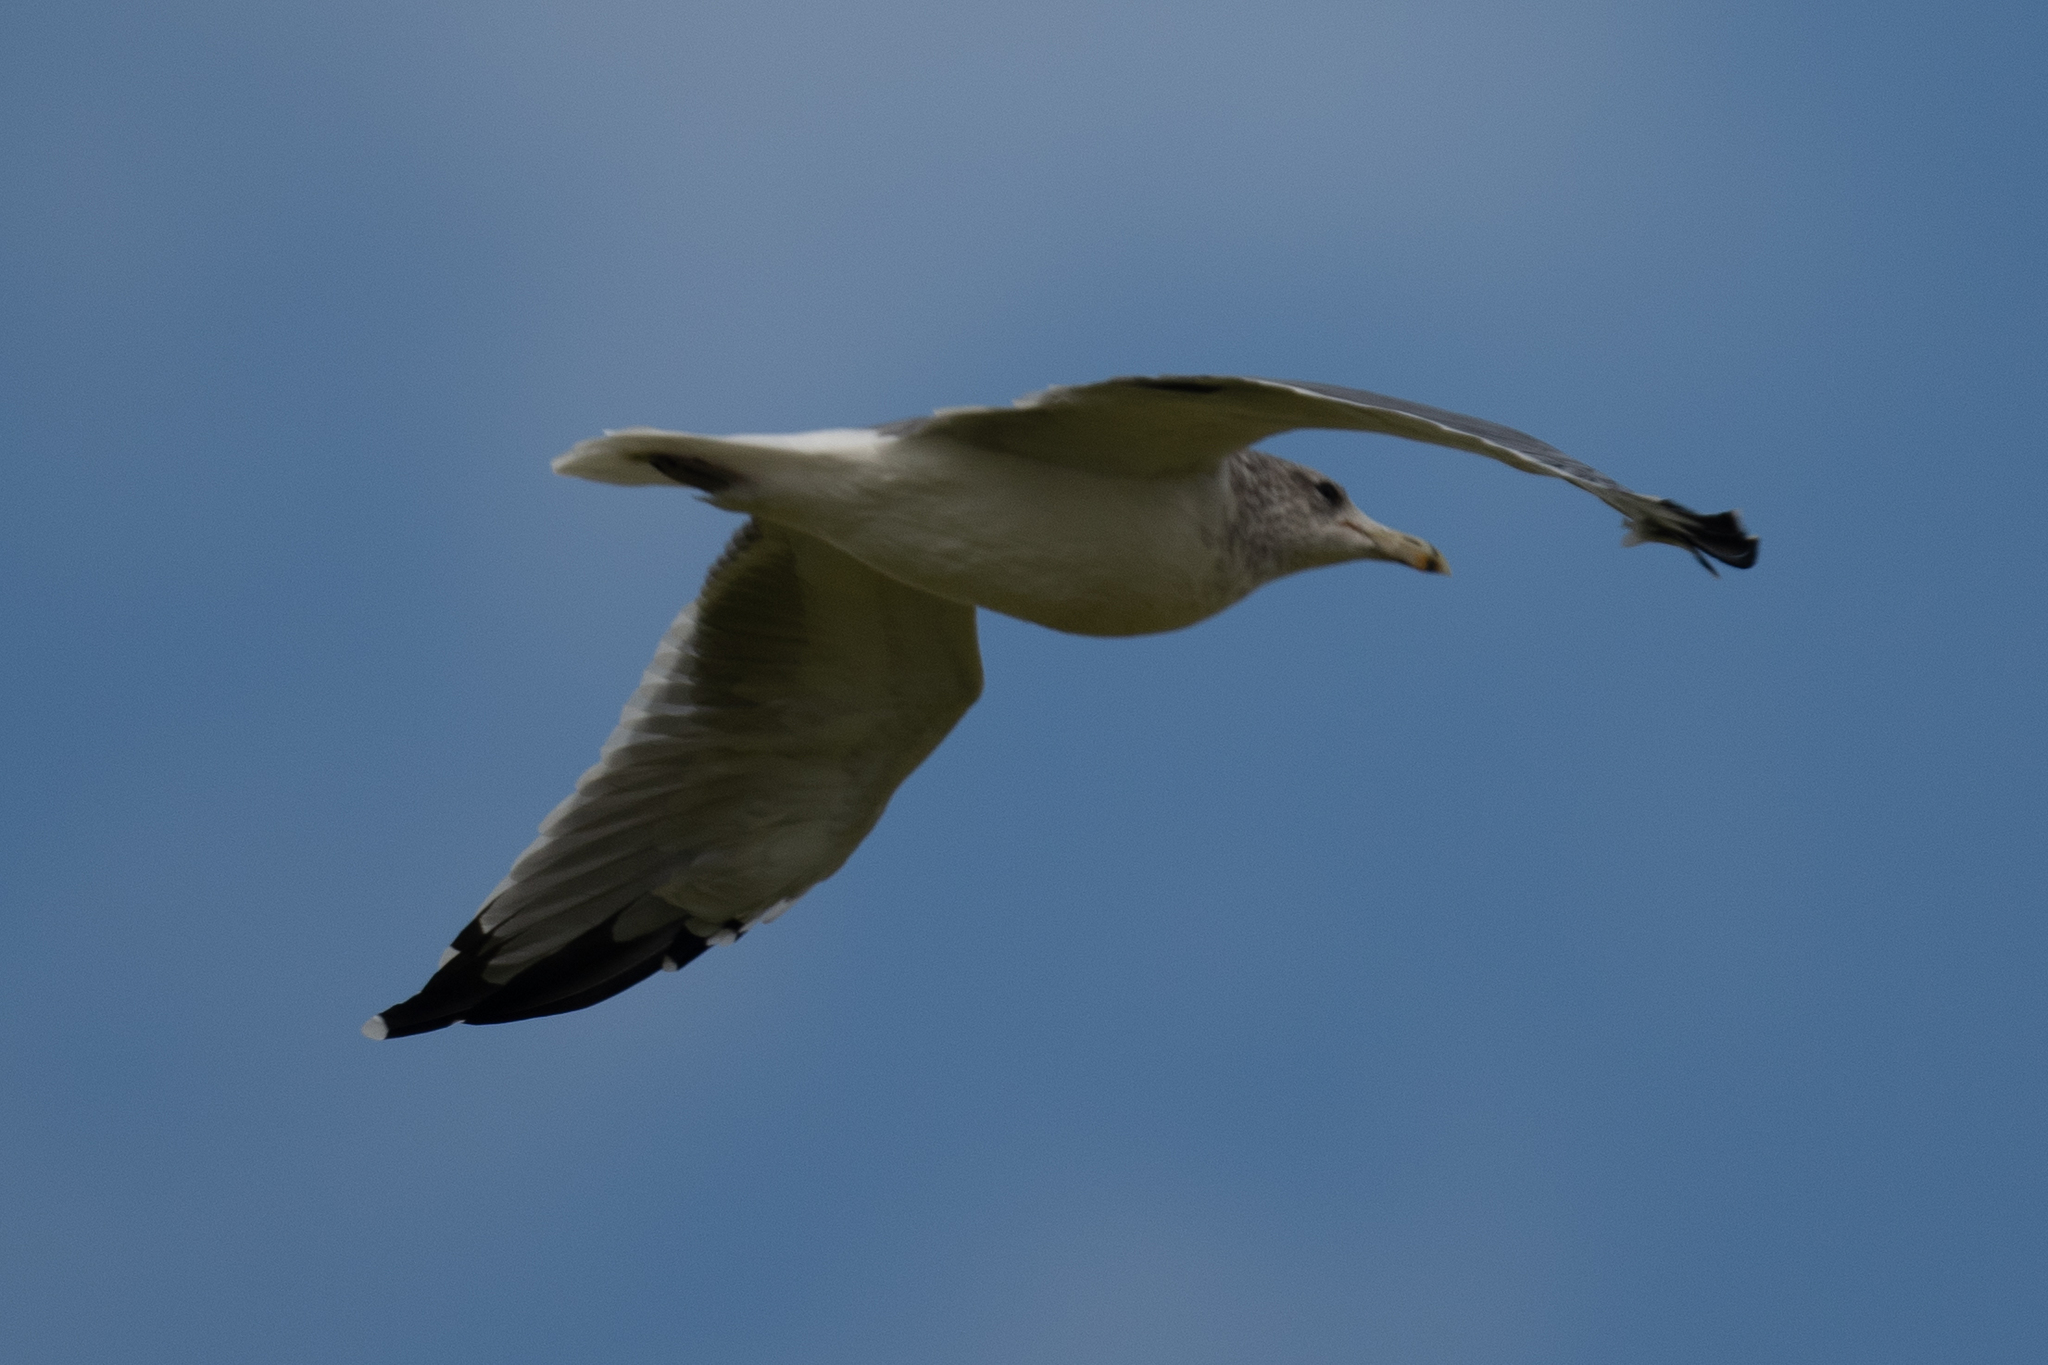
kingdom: Animalia
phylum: Chordata
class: Aves
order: Charadriiformes
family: Laridae
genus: Larus
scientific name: Larus californicus
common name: California gull
